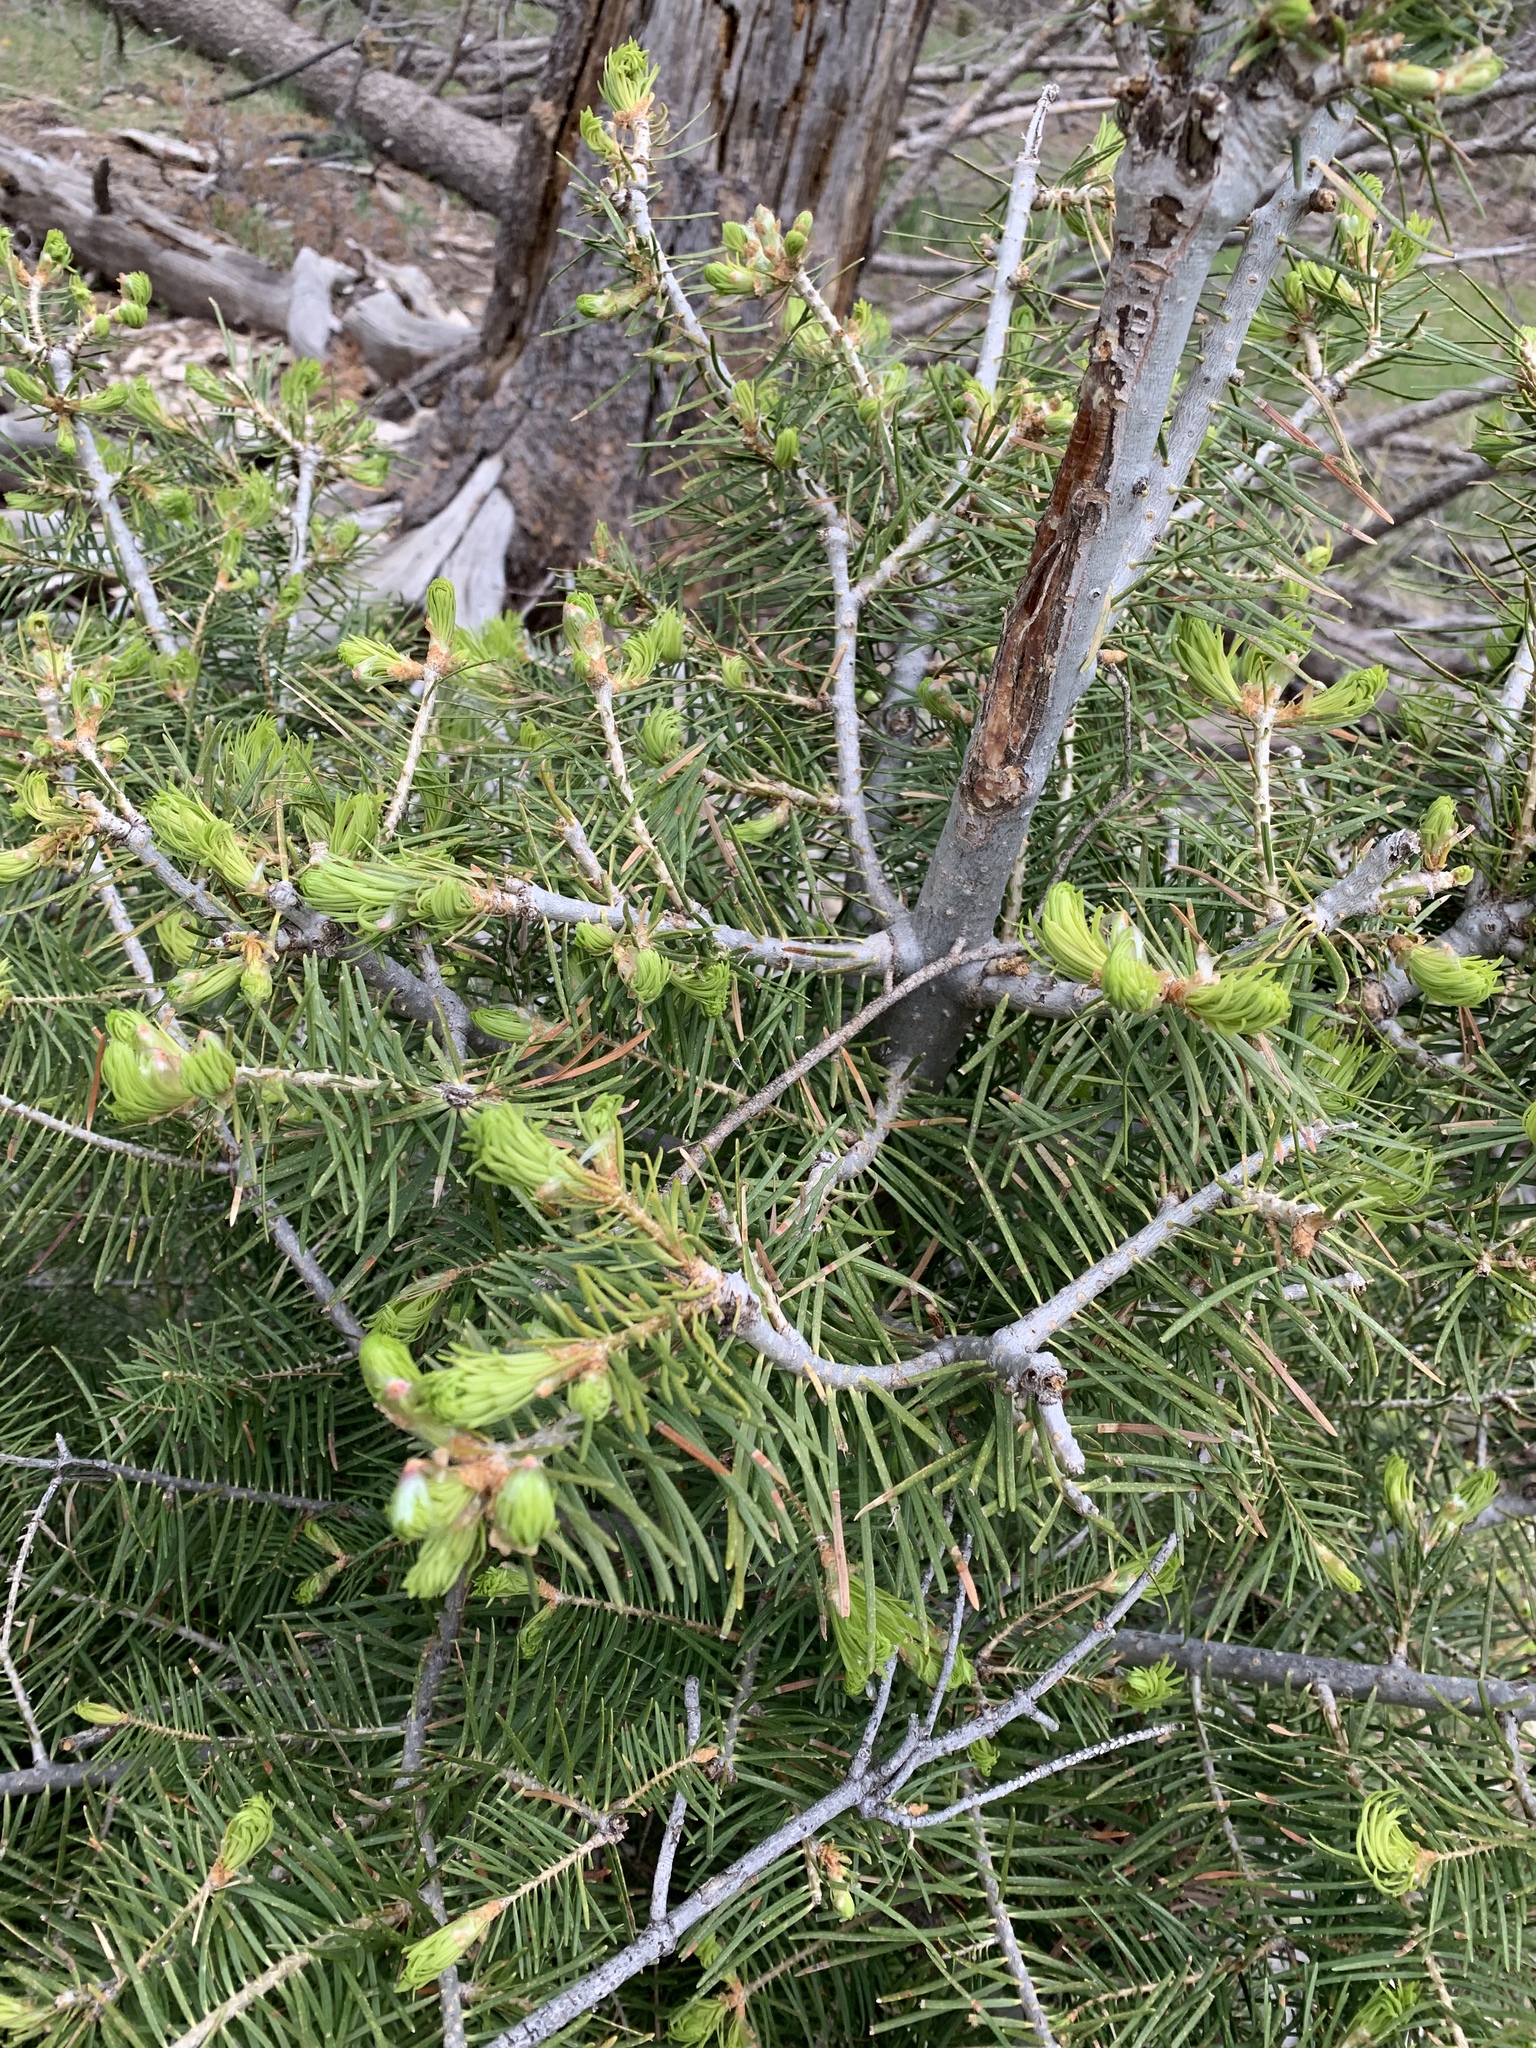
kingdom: Plantae
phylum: Tracheophyta
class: Pinopsida
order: Pinales
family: Pinaceae
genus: Abies
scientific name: Abies concolor
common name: Colorado fir
